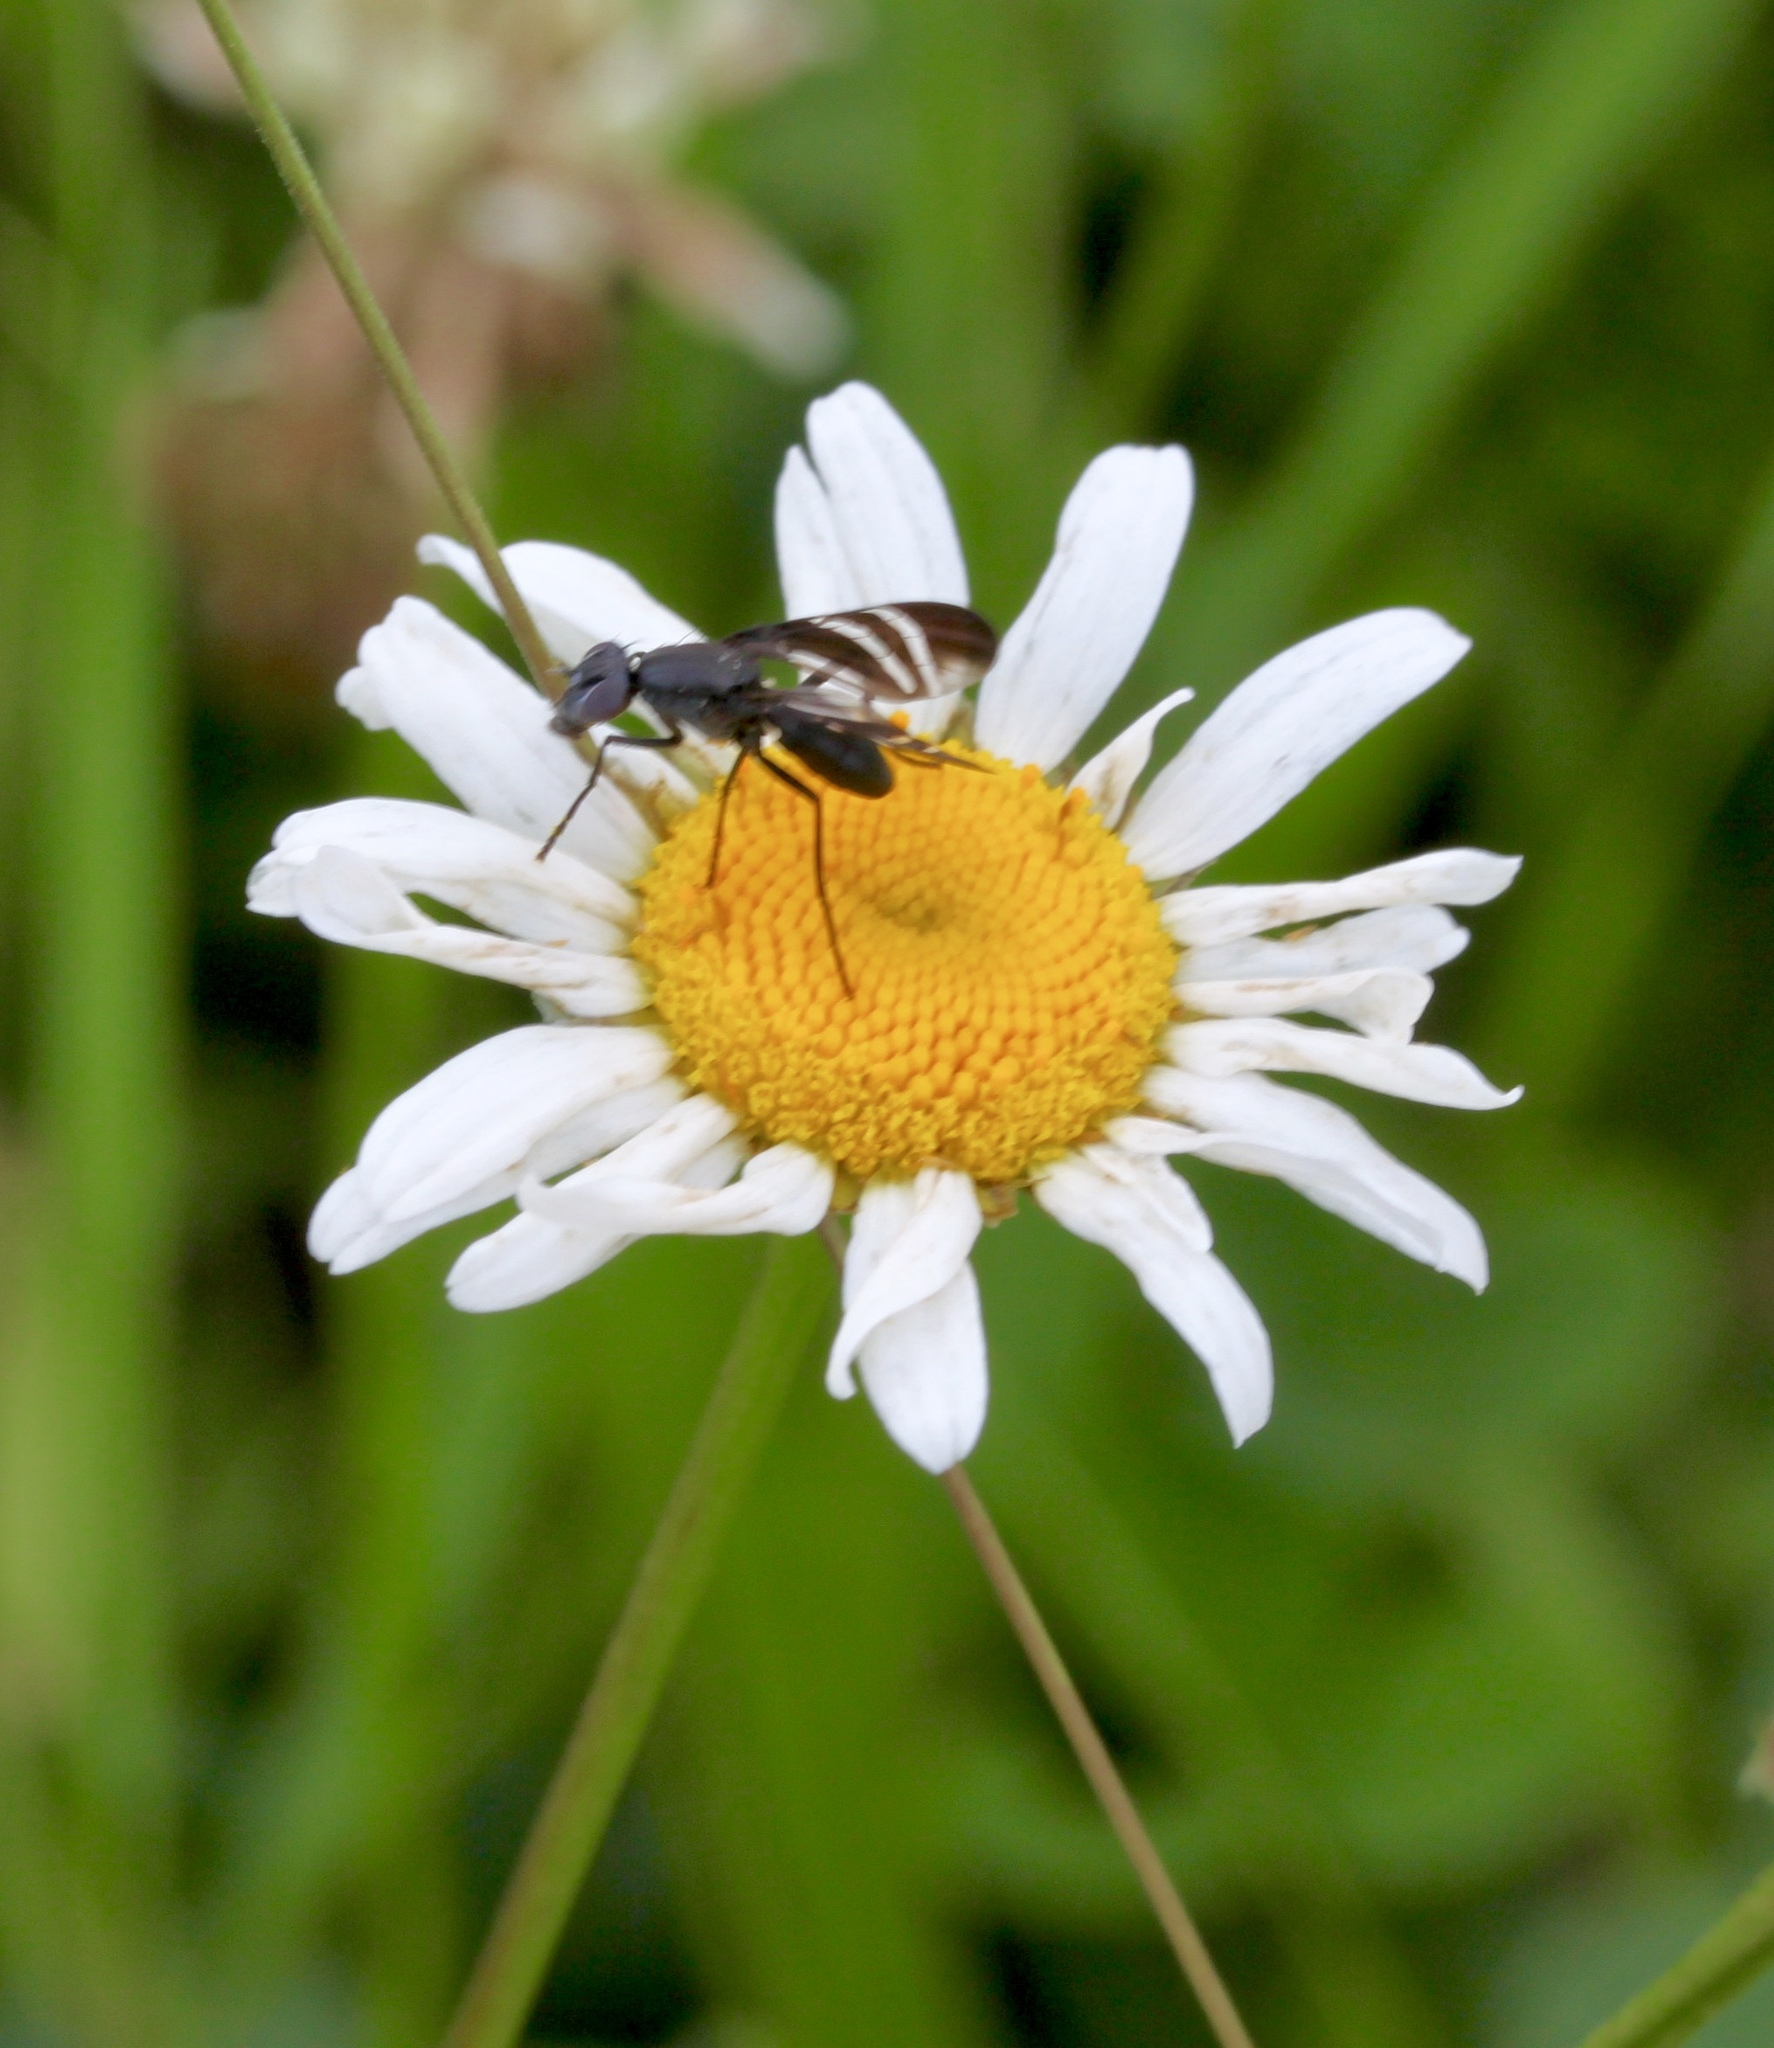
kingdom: Animalia
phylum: Arthropoda
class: Insecta
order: Diptera
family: Ulidiidae
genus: Tritoxa
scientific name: Tritoxa flexa
